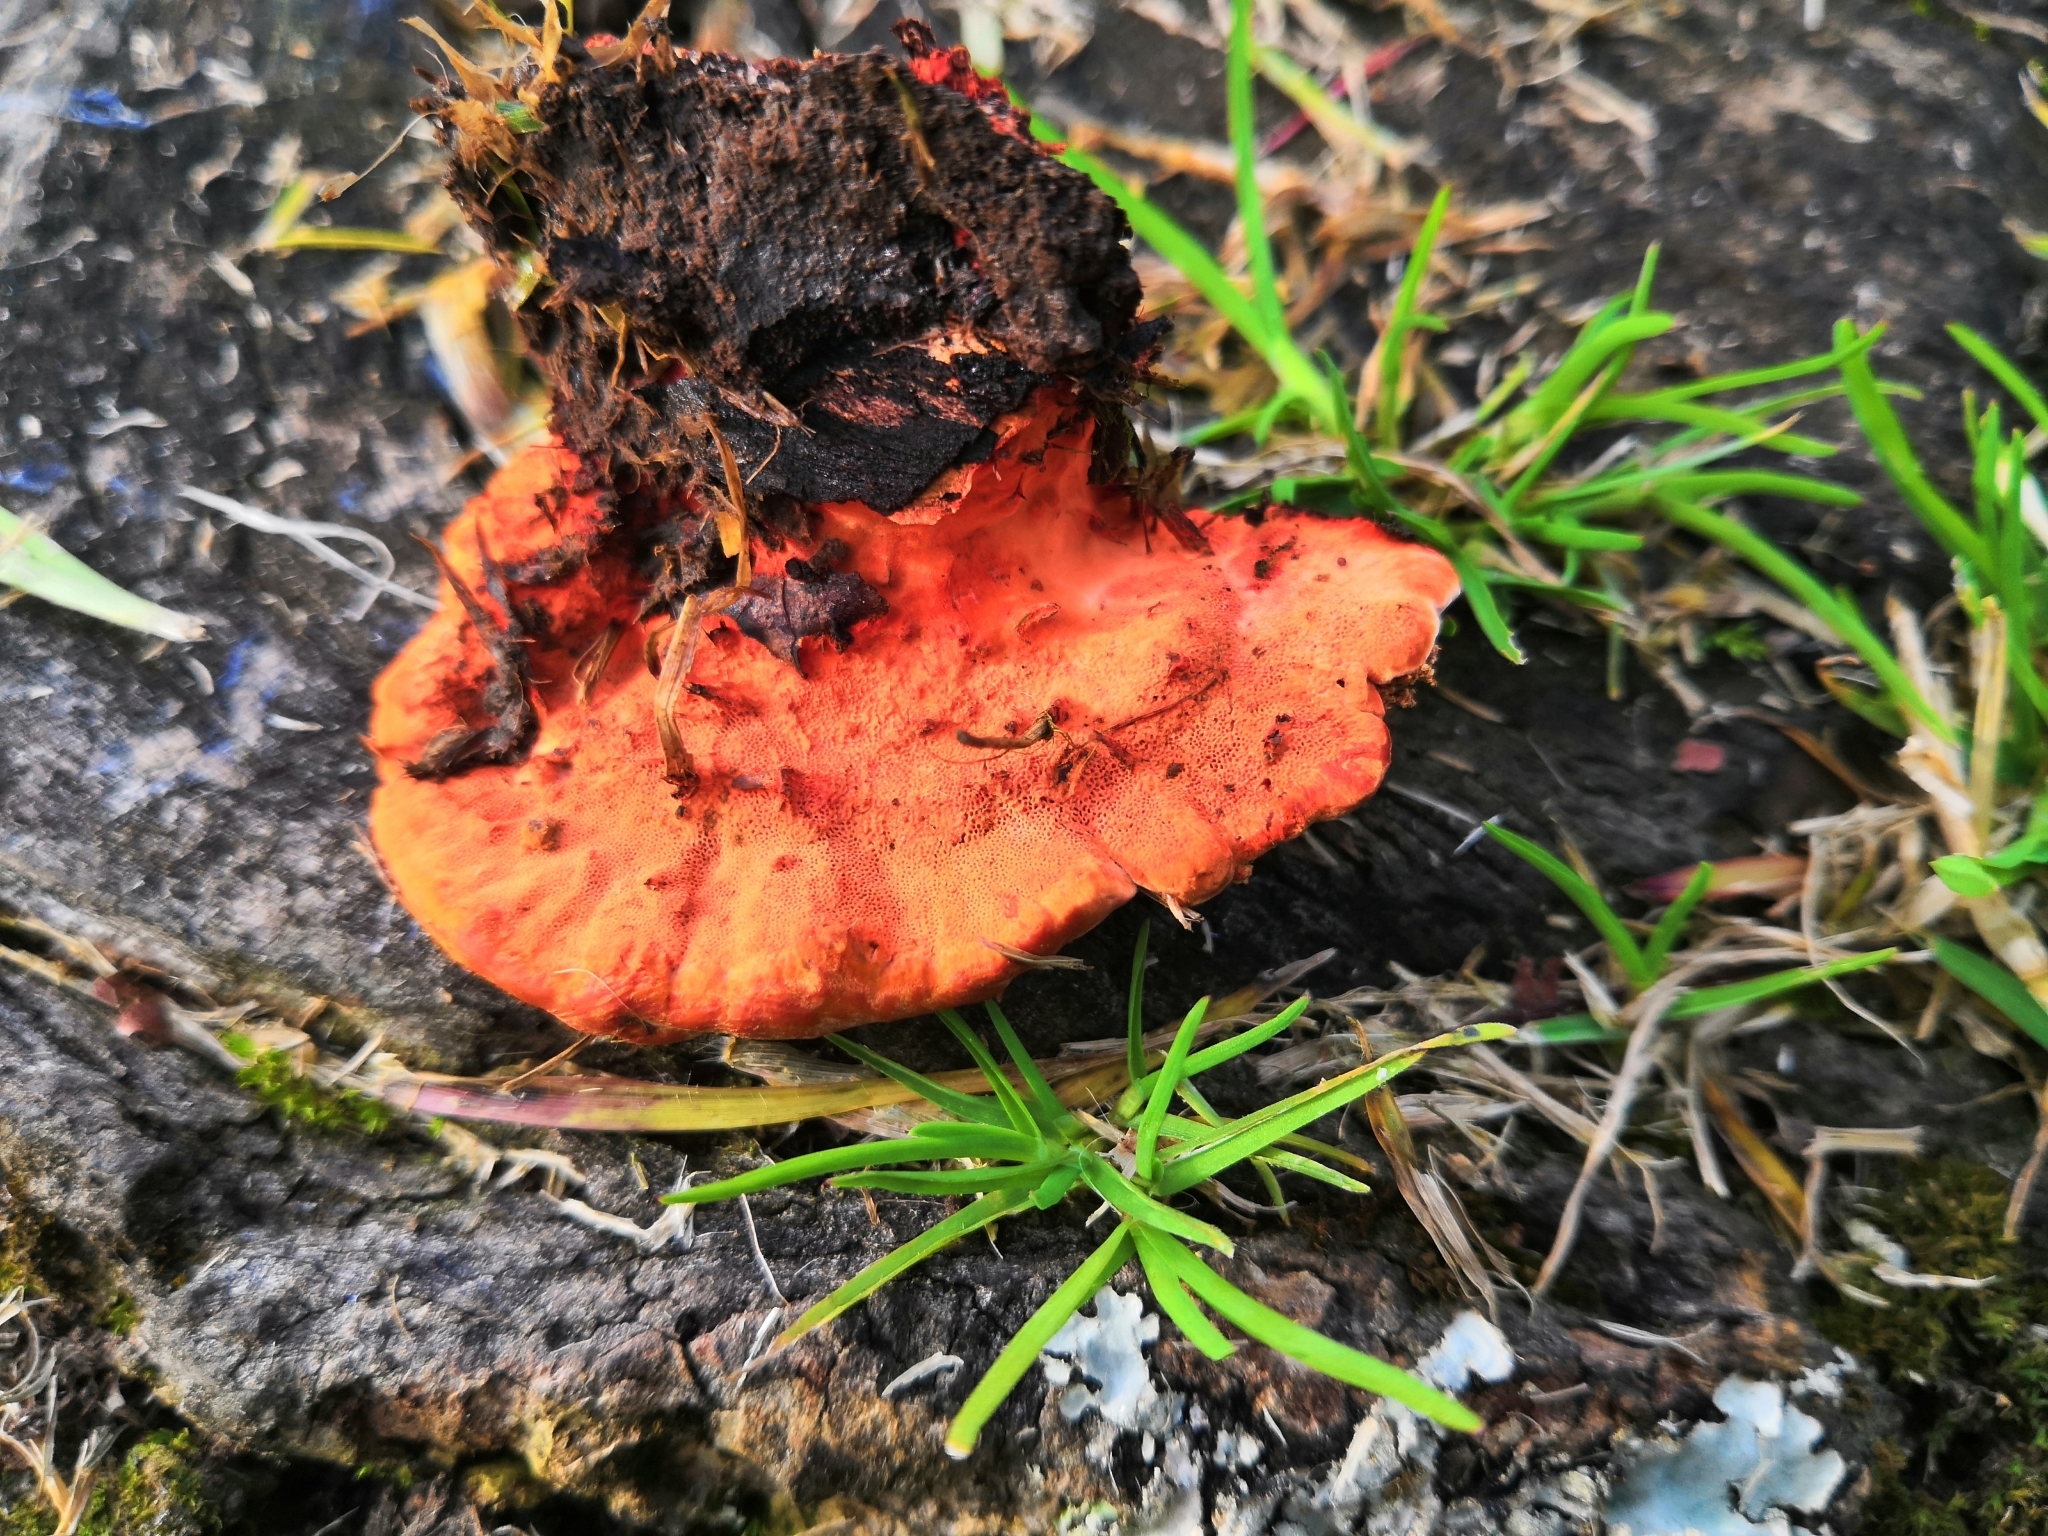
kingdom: Fungi
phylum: Basidiomycota
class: Agaricomycetes
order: Polyporales
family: Polyporaceae
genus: Trametes
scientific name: Trametes coccinea
